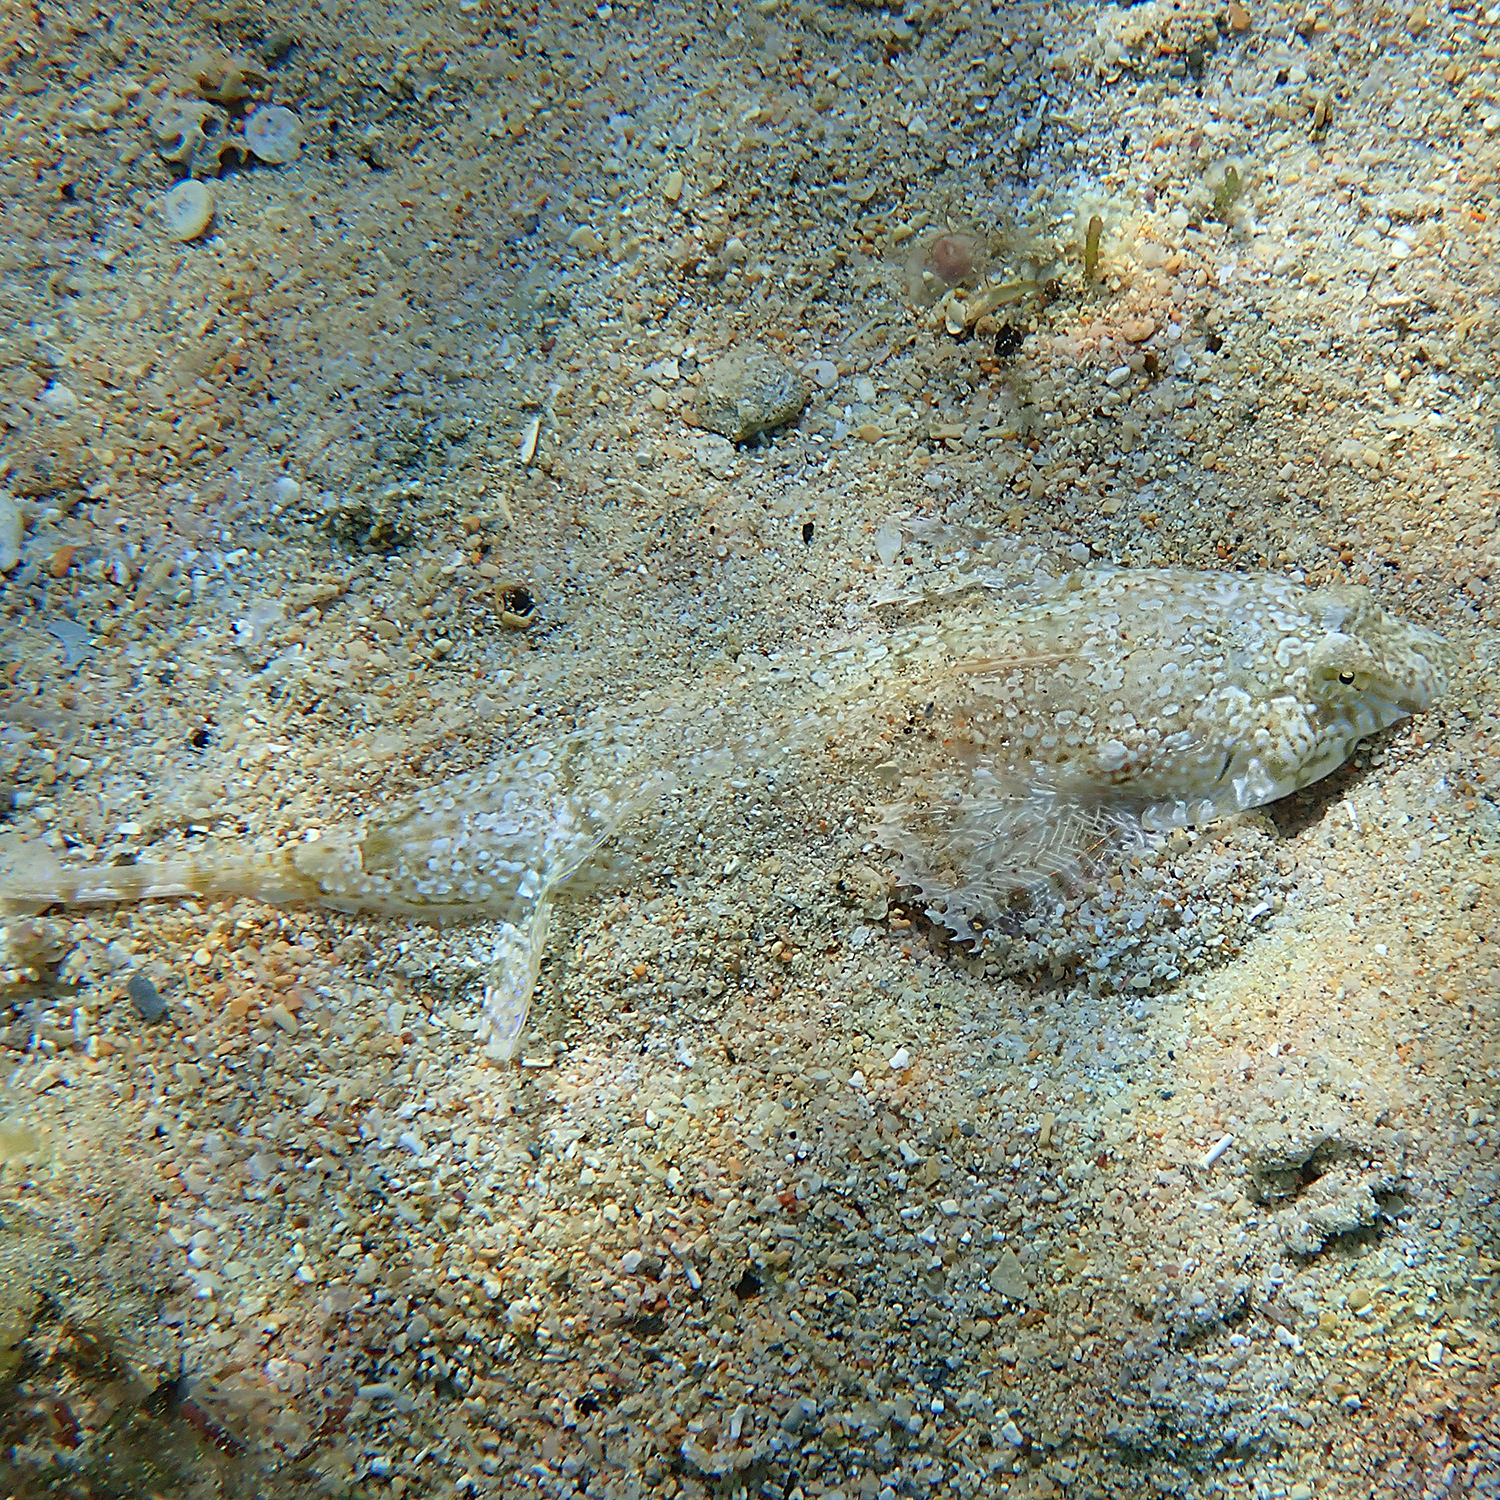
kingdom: Animalia
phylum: Chordata
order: Perciformes
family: Callionymidae
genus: Diplogrammus
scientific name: Diplogrammus goramensis
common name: Goram dragonet
